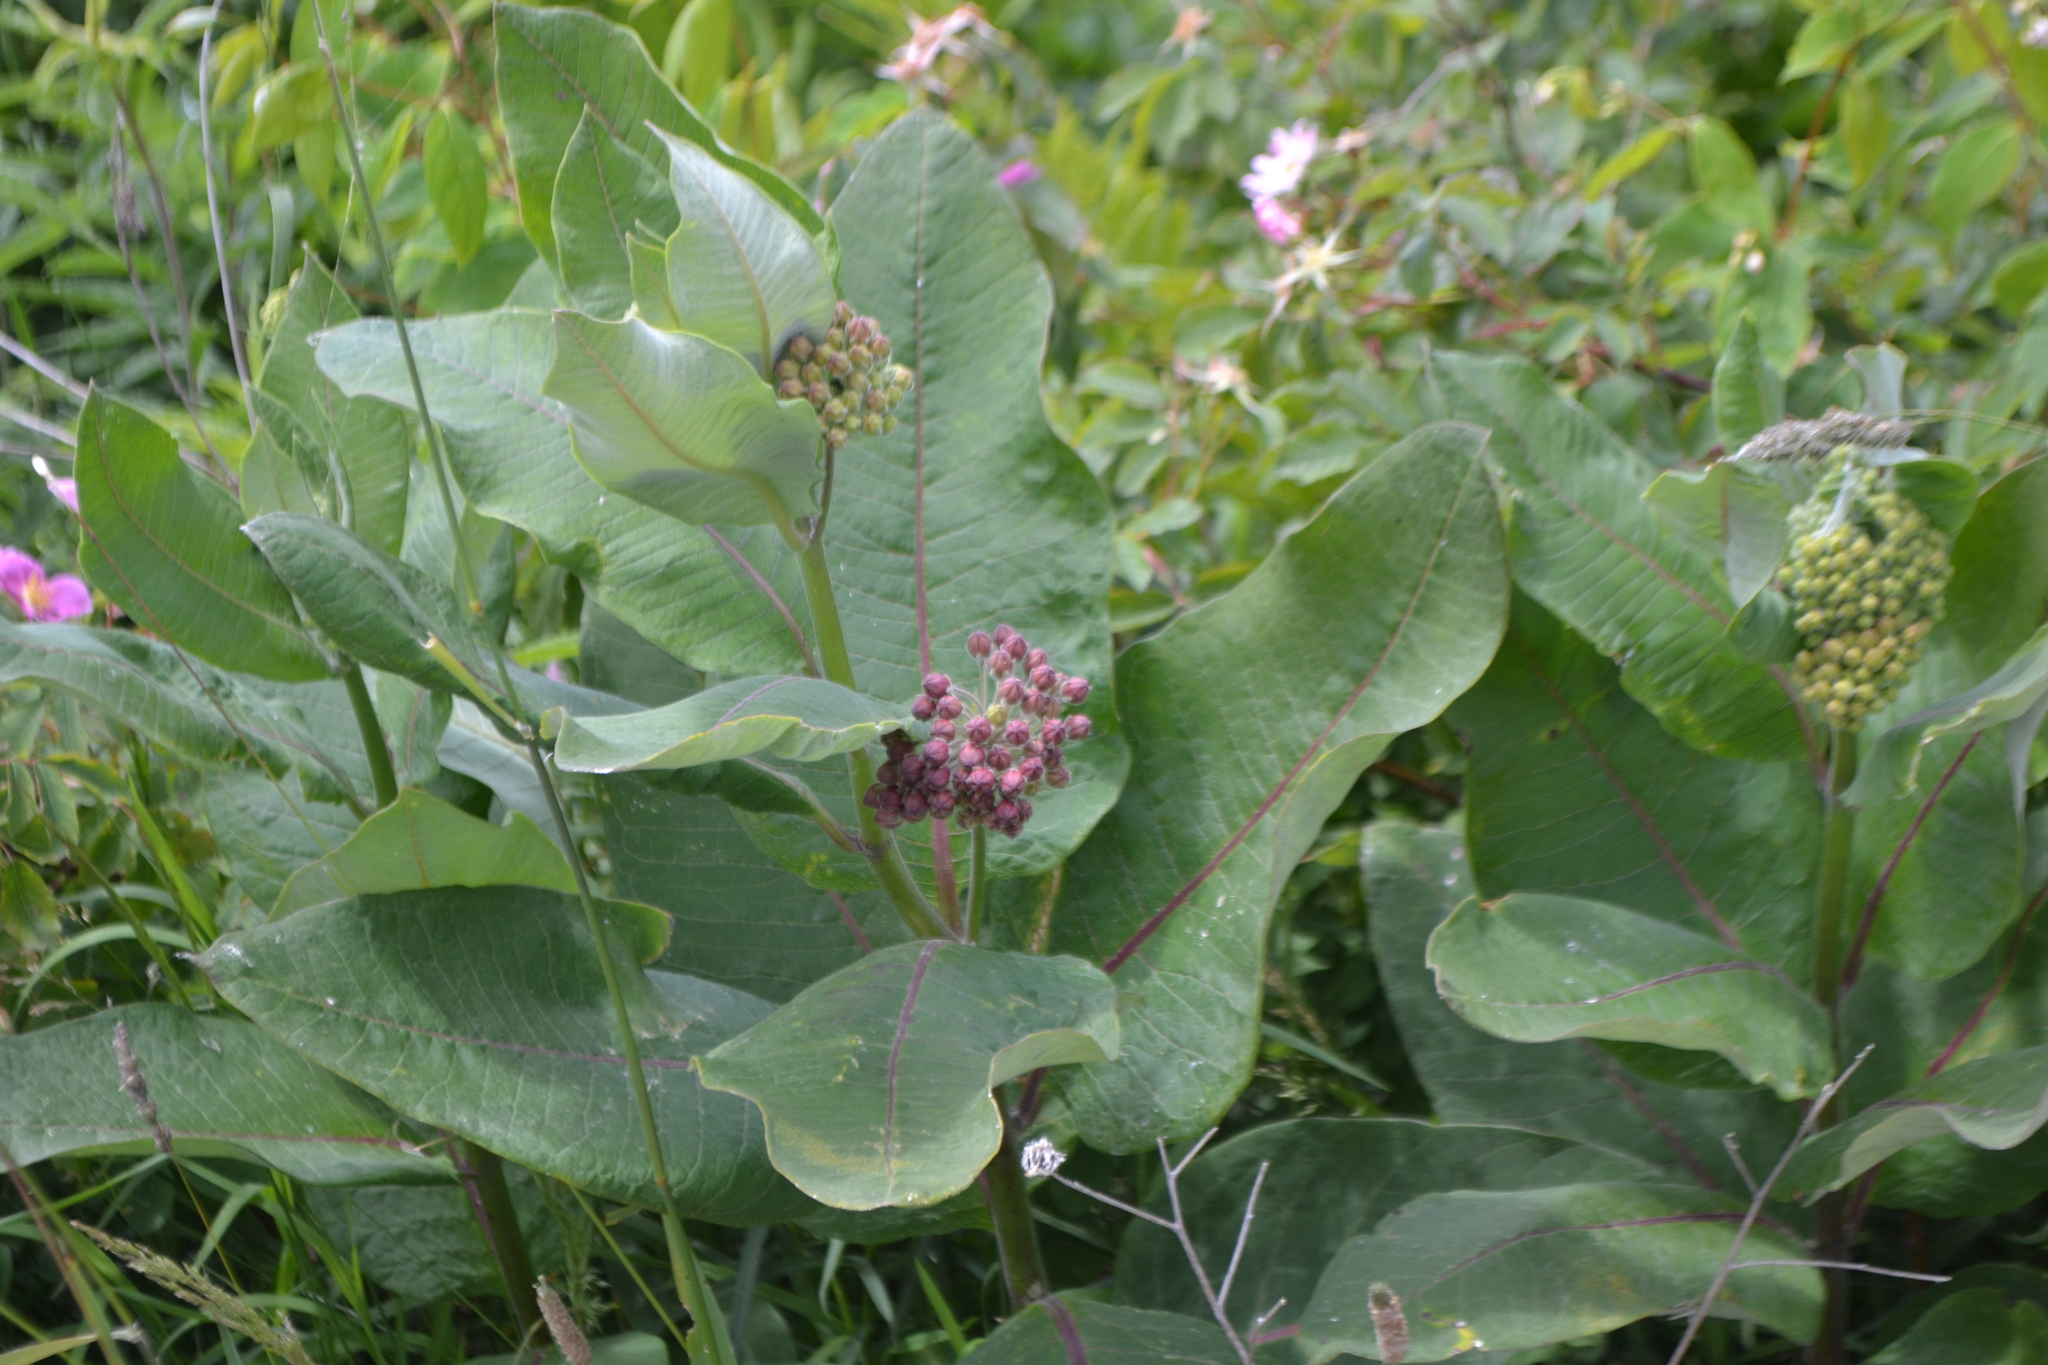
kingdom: Plantae
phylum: Tracheophyta
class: Magnoliopsida
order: Gentianales
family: Apocynaceae
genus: Asclepias
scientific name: Asclepias syriaca
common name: Common milkweed
